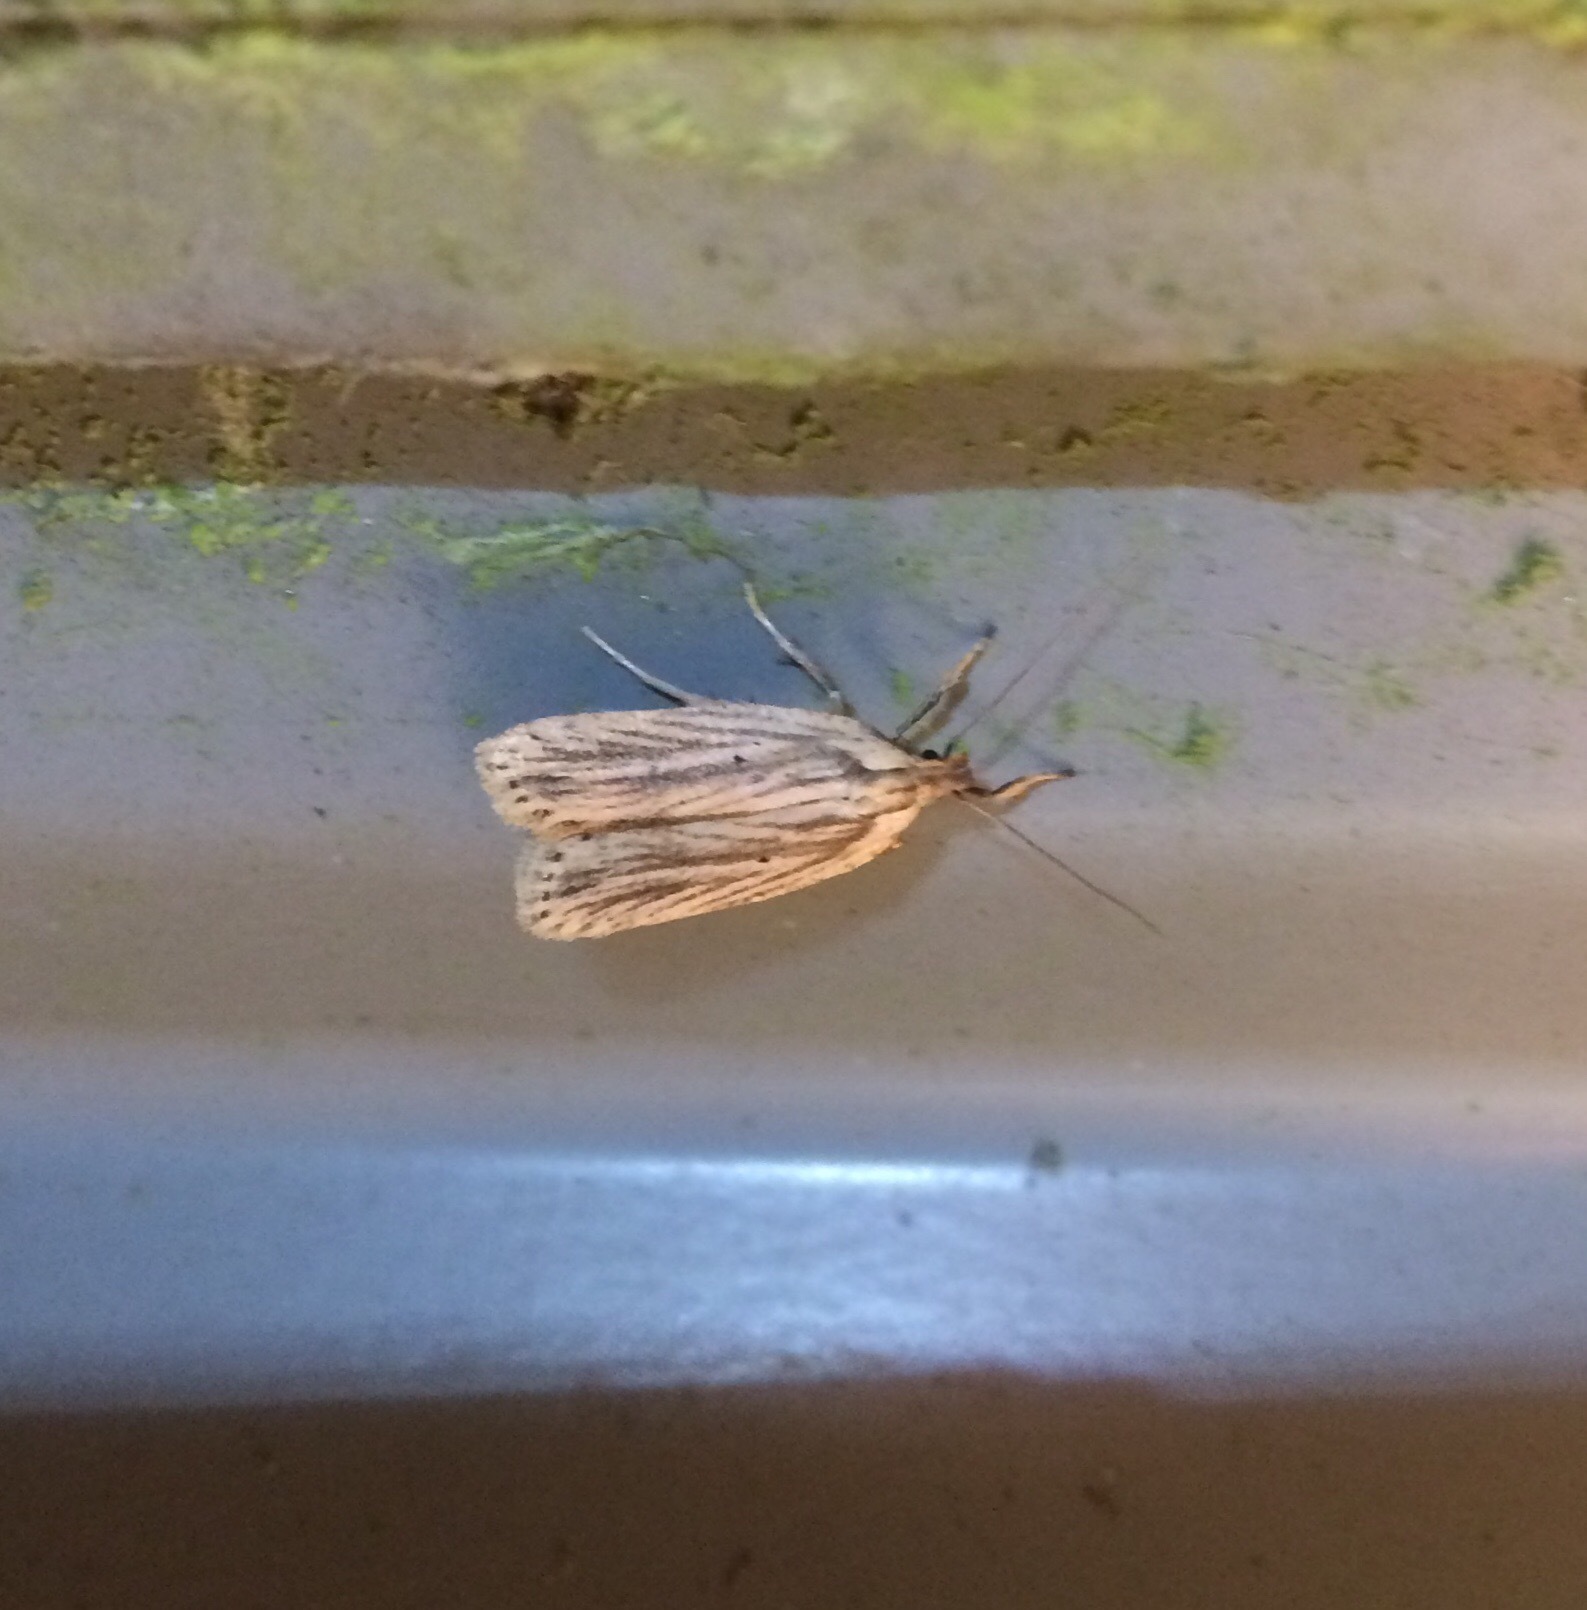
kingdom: Animalia
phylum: Arthropoda
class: Insecta
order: Lepidoptera
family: Depressariidae
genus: Agonopterix
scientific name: Agonopterix
